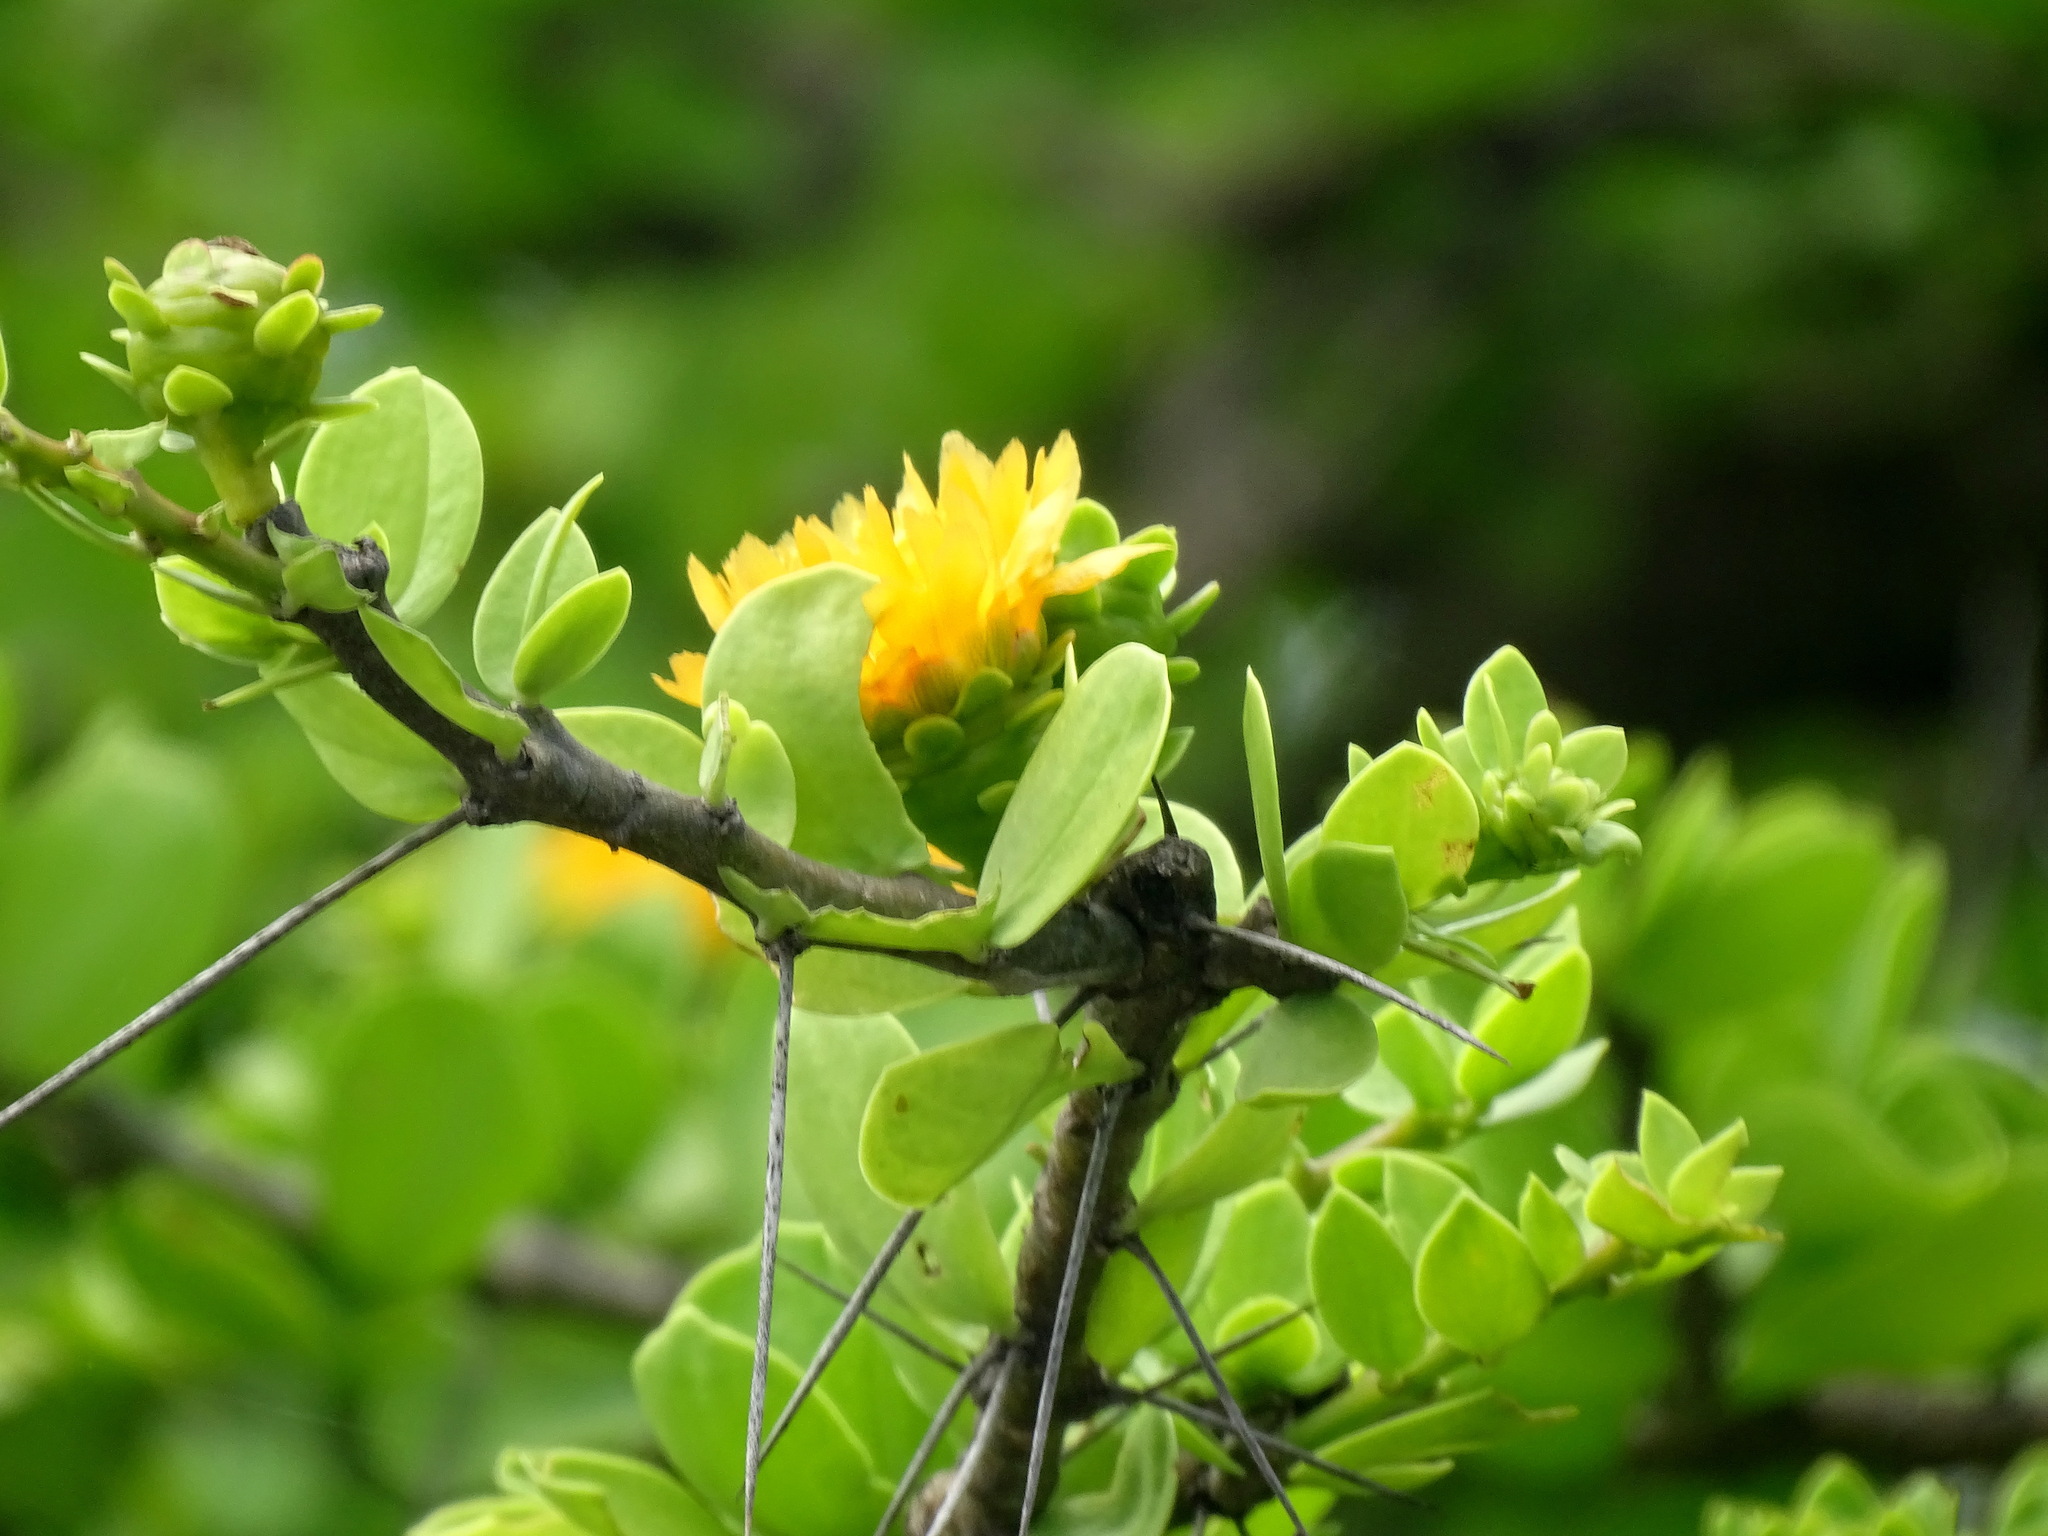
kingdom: Plantae
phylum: Tracheophyta
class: Magnoliopsida
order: Caryophyllales
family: Cactaceae
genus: Leuenbergeria
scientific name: Leuenbergeria lychnidiflora
